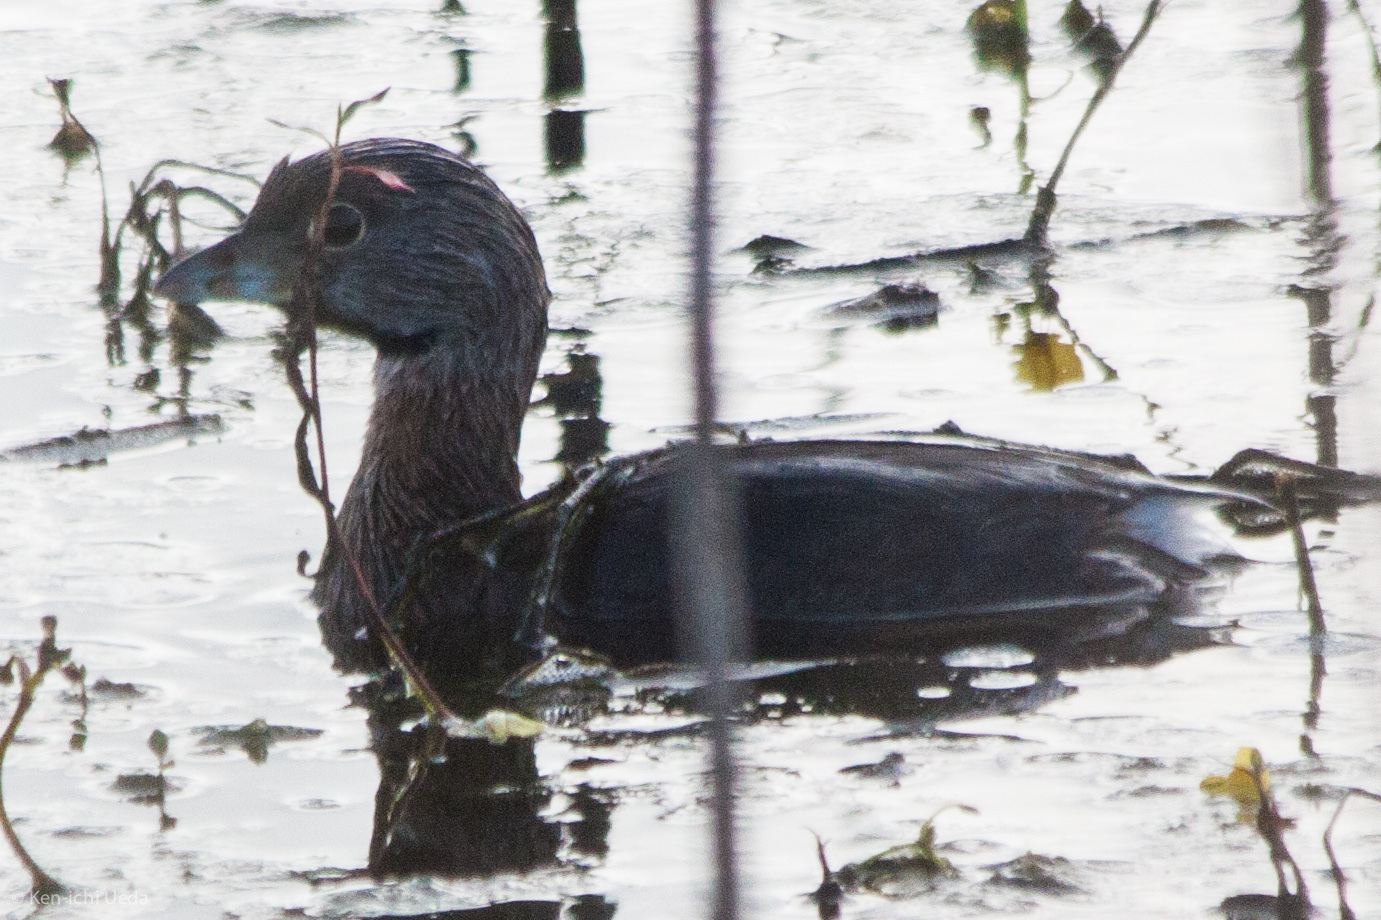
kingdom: Animalia
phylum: Chordata
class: Aves
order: Podicipediformes
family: Podicipedidae
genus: Podilymbus
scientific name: Podilymbus podiceps
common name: Pied-billed grebe
